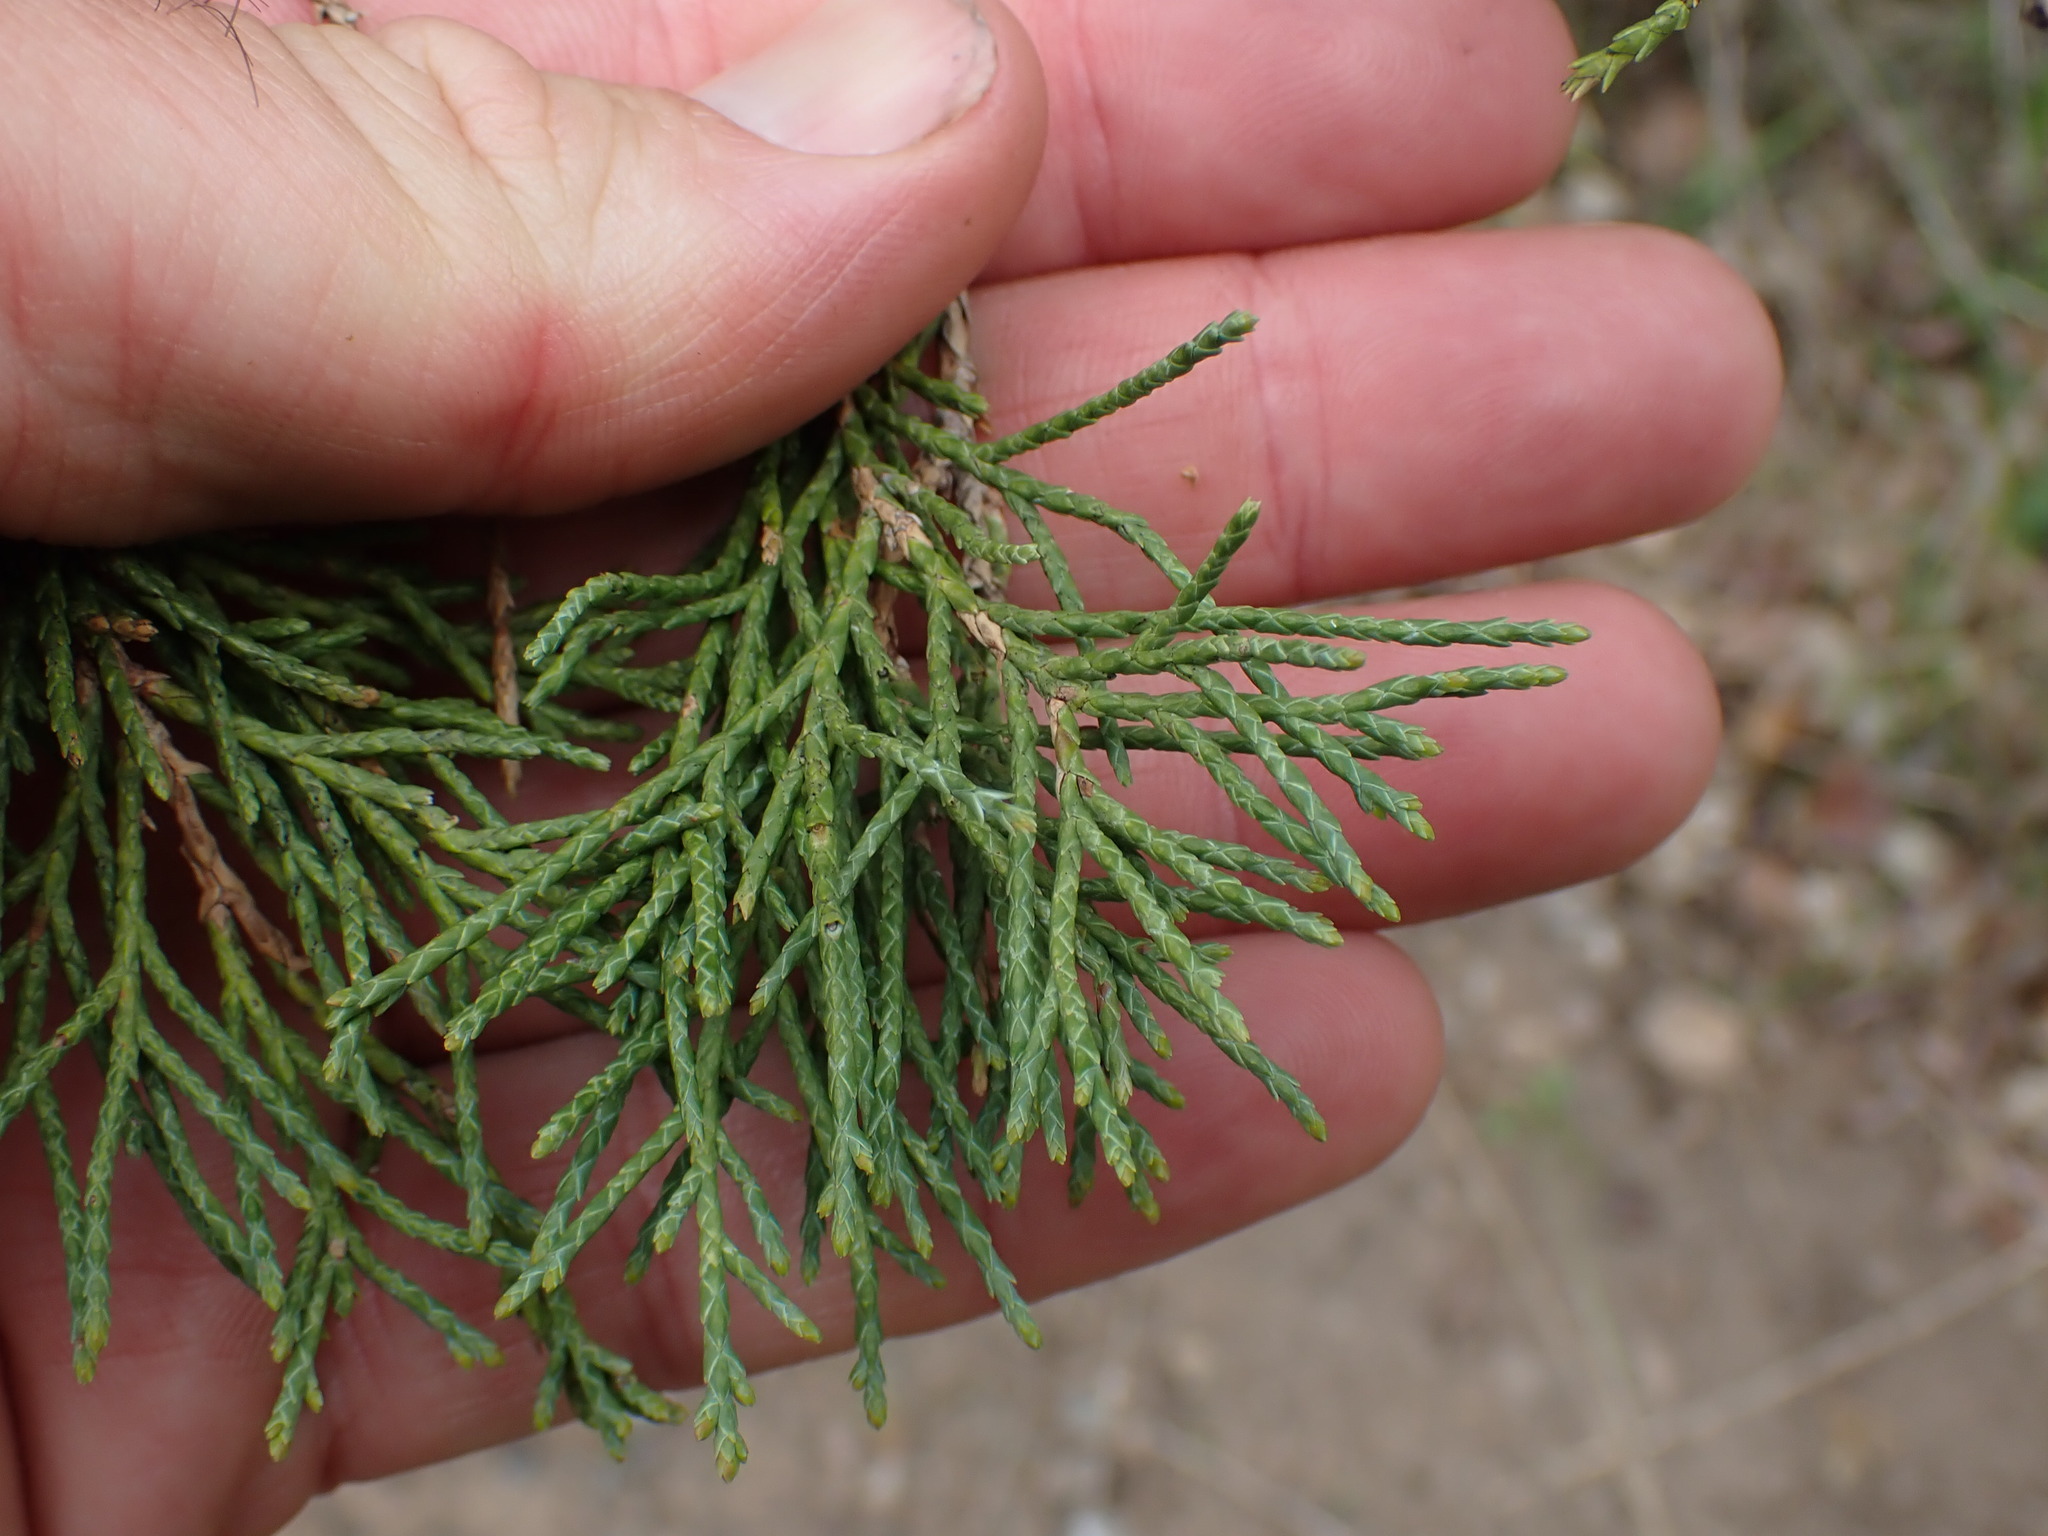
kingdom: Plantae
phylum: Tracheophyta
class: Pinopsida
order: Pinales
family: Cupressaceae
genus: Juniperus
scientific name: Juniperus scopulorum
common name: Rocky mountain juniper
